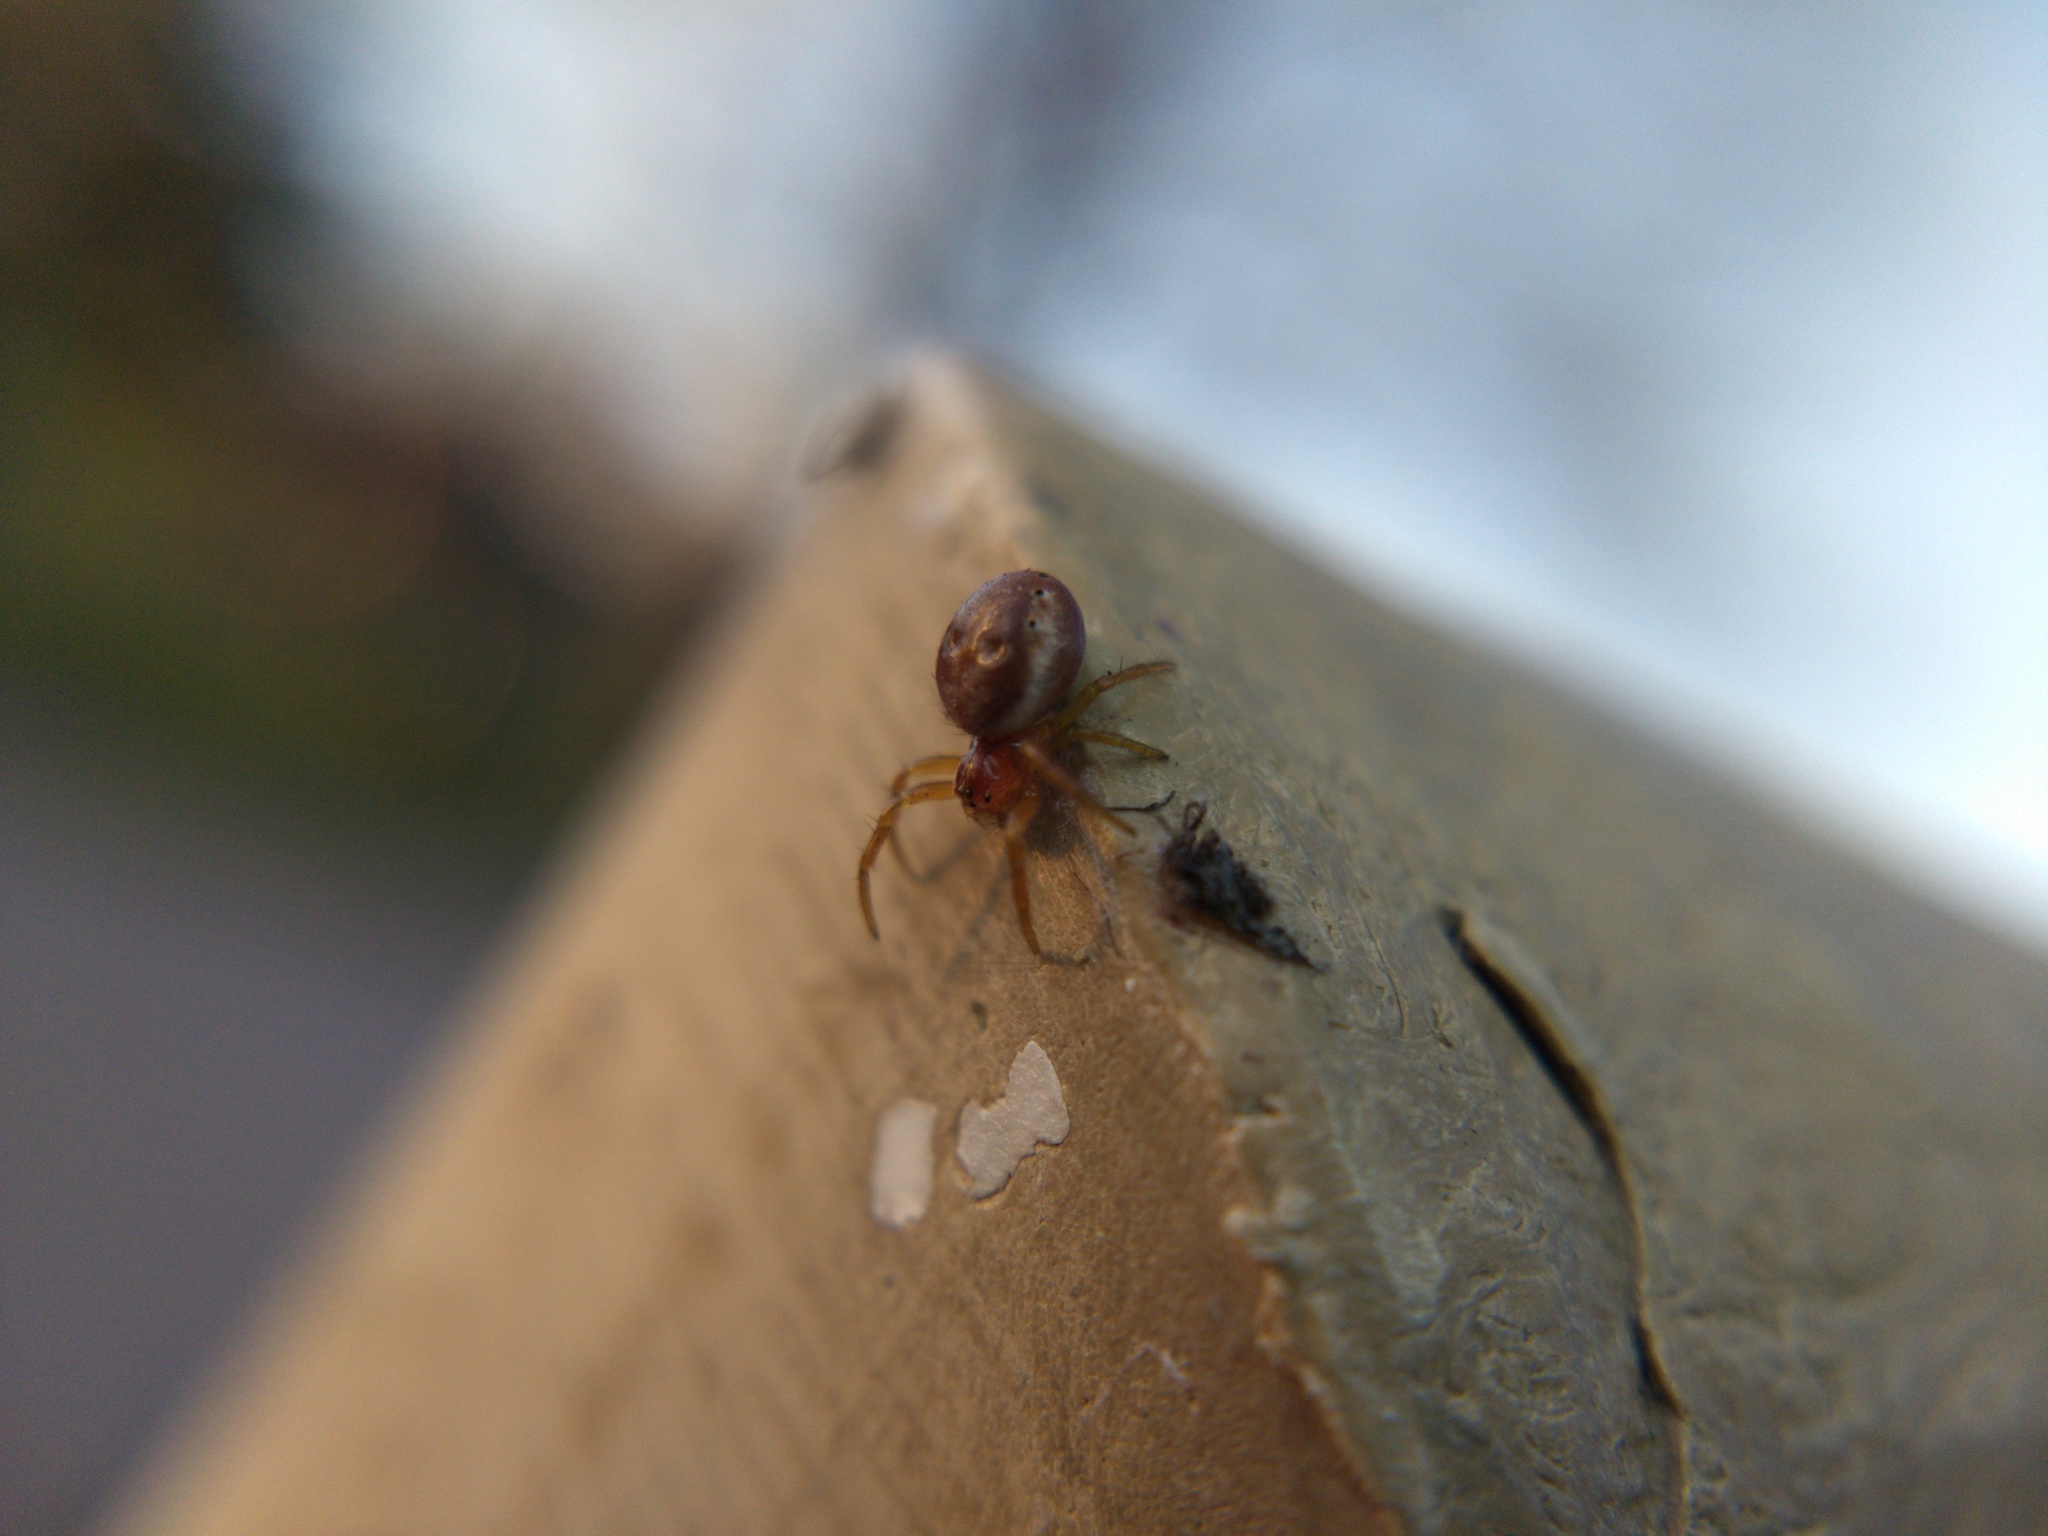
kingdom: Animalia
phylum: Arthropoda
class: Arachnida
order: Araneae
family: Araneidae
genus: Araniella
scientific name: Araniella displicata
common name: Sixspotted orb weaver
